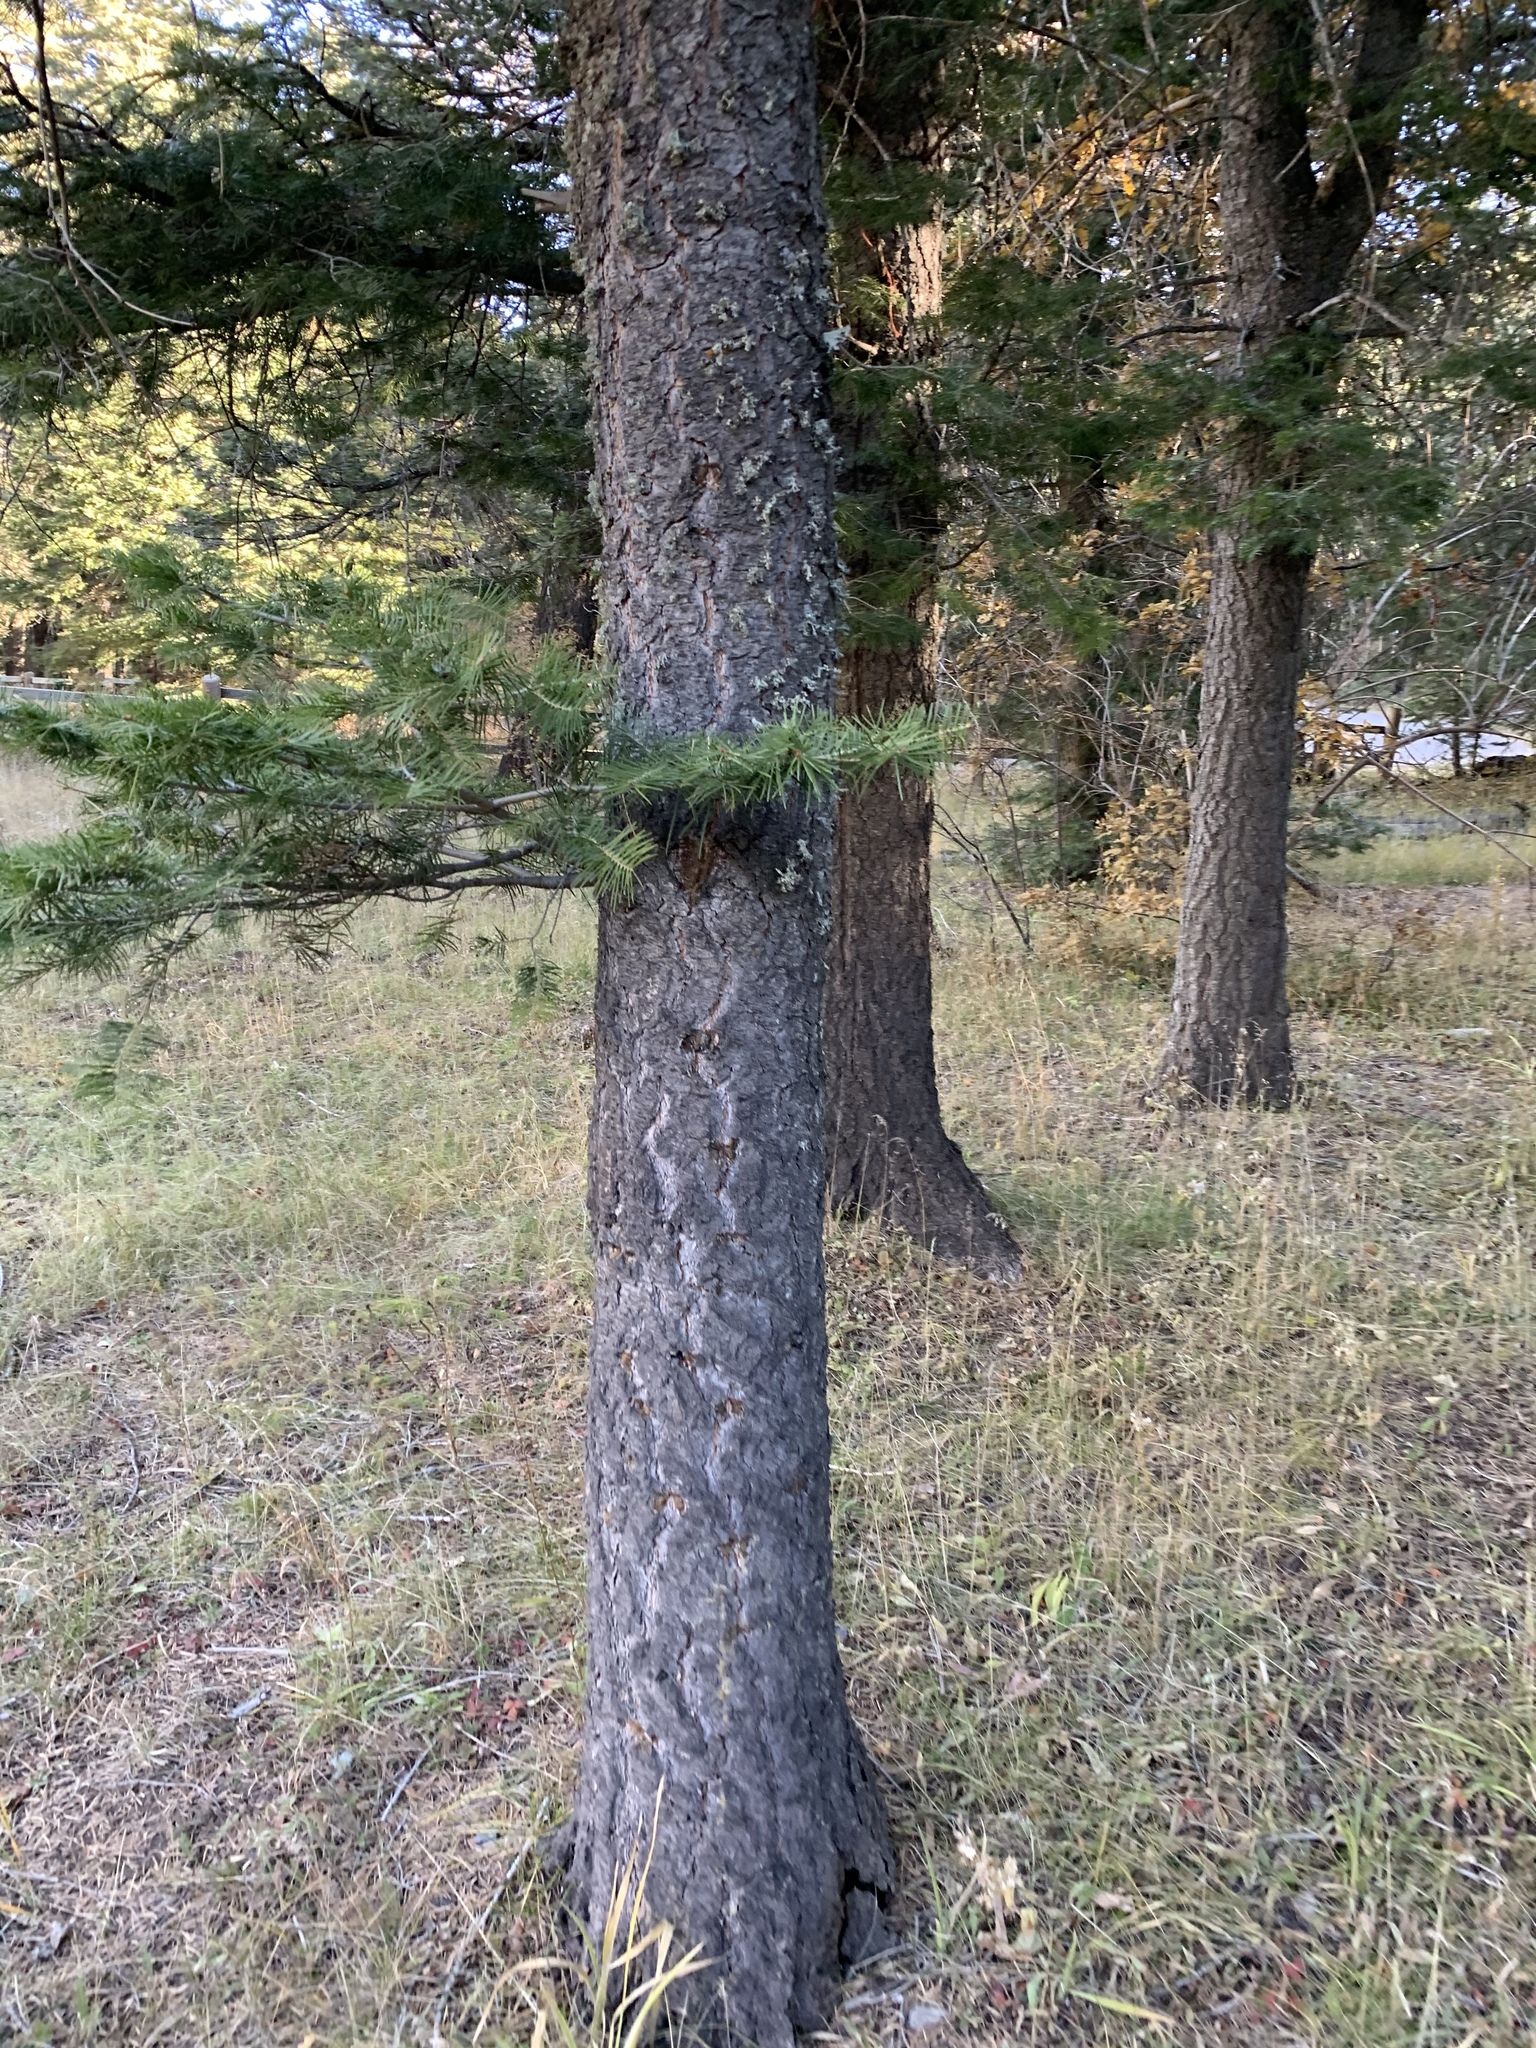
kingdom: Plantae
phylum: Tracheophyta
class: Pinopsida
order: Pinales
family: Pinaceae
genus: Abies
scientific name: Abies concolor
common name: Colorado fir
